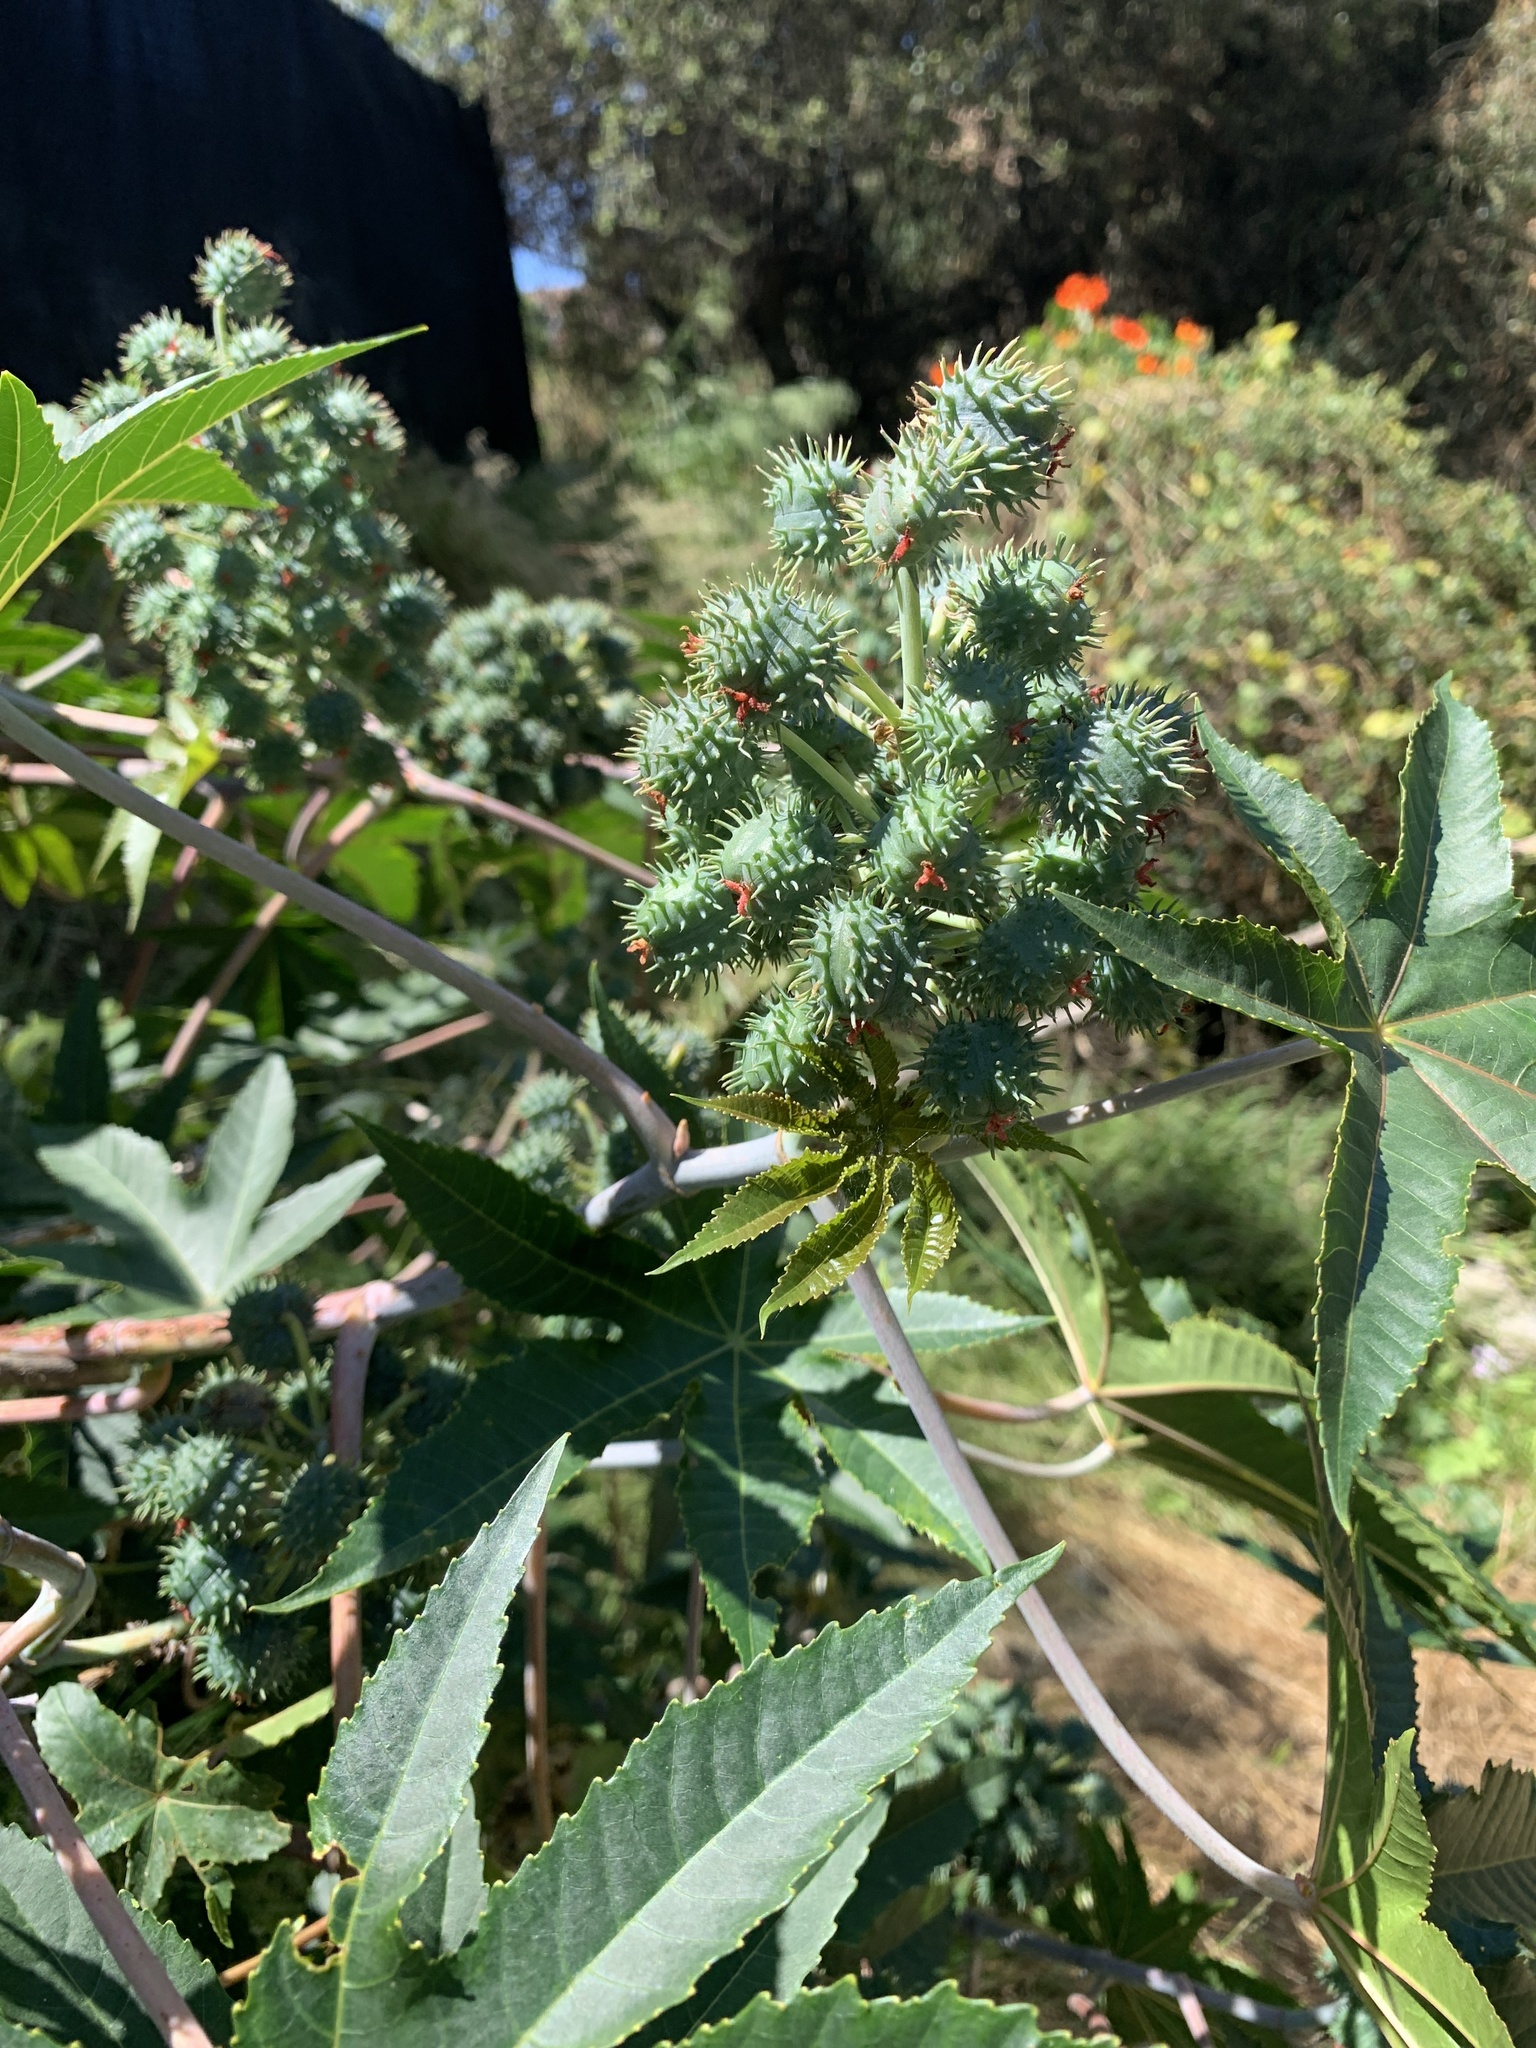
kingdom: Plantae
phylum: Tracheophyta
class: Magnoliopsida
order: Malpighiales
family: Euphorbiaceae
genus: Ricinus
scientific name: Ricinus communis
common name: Castor-oil-plant
